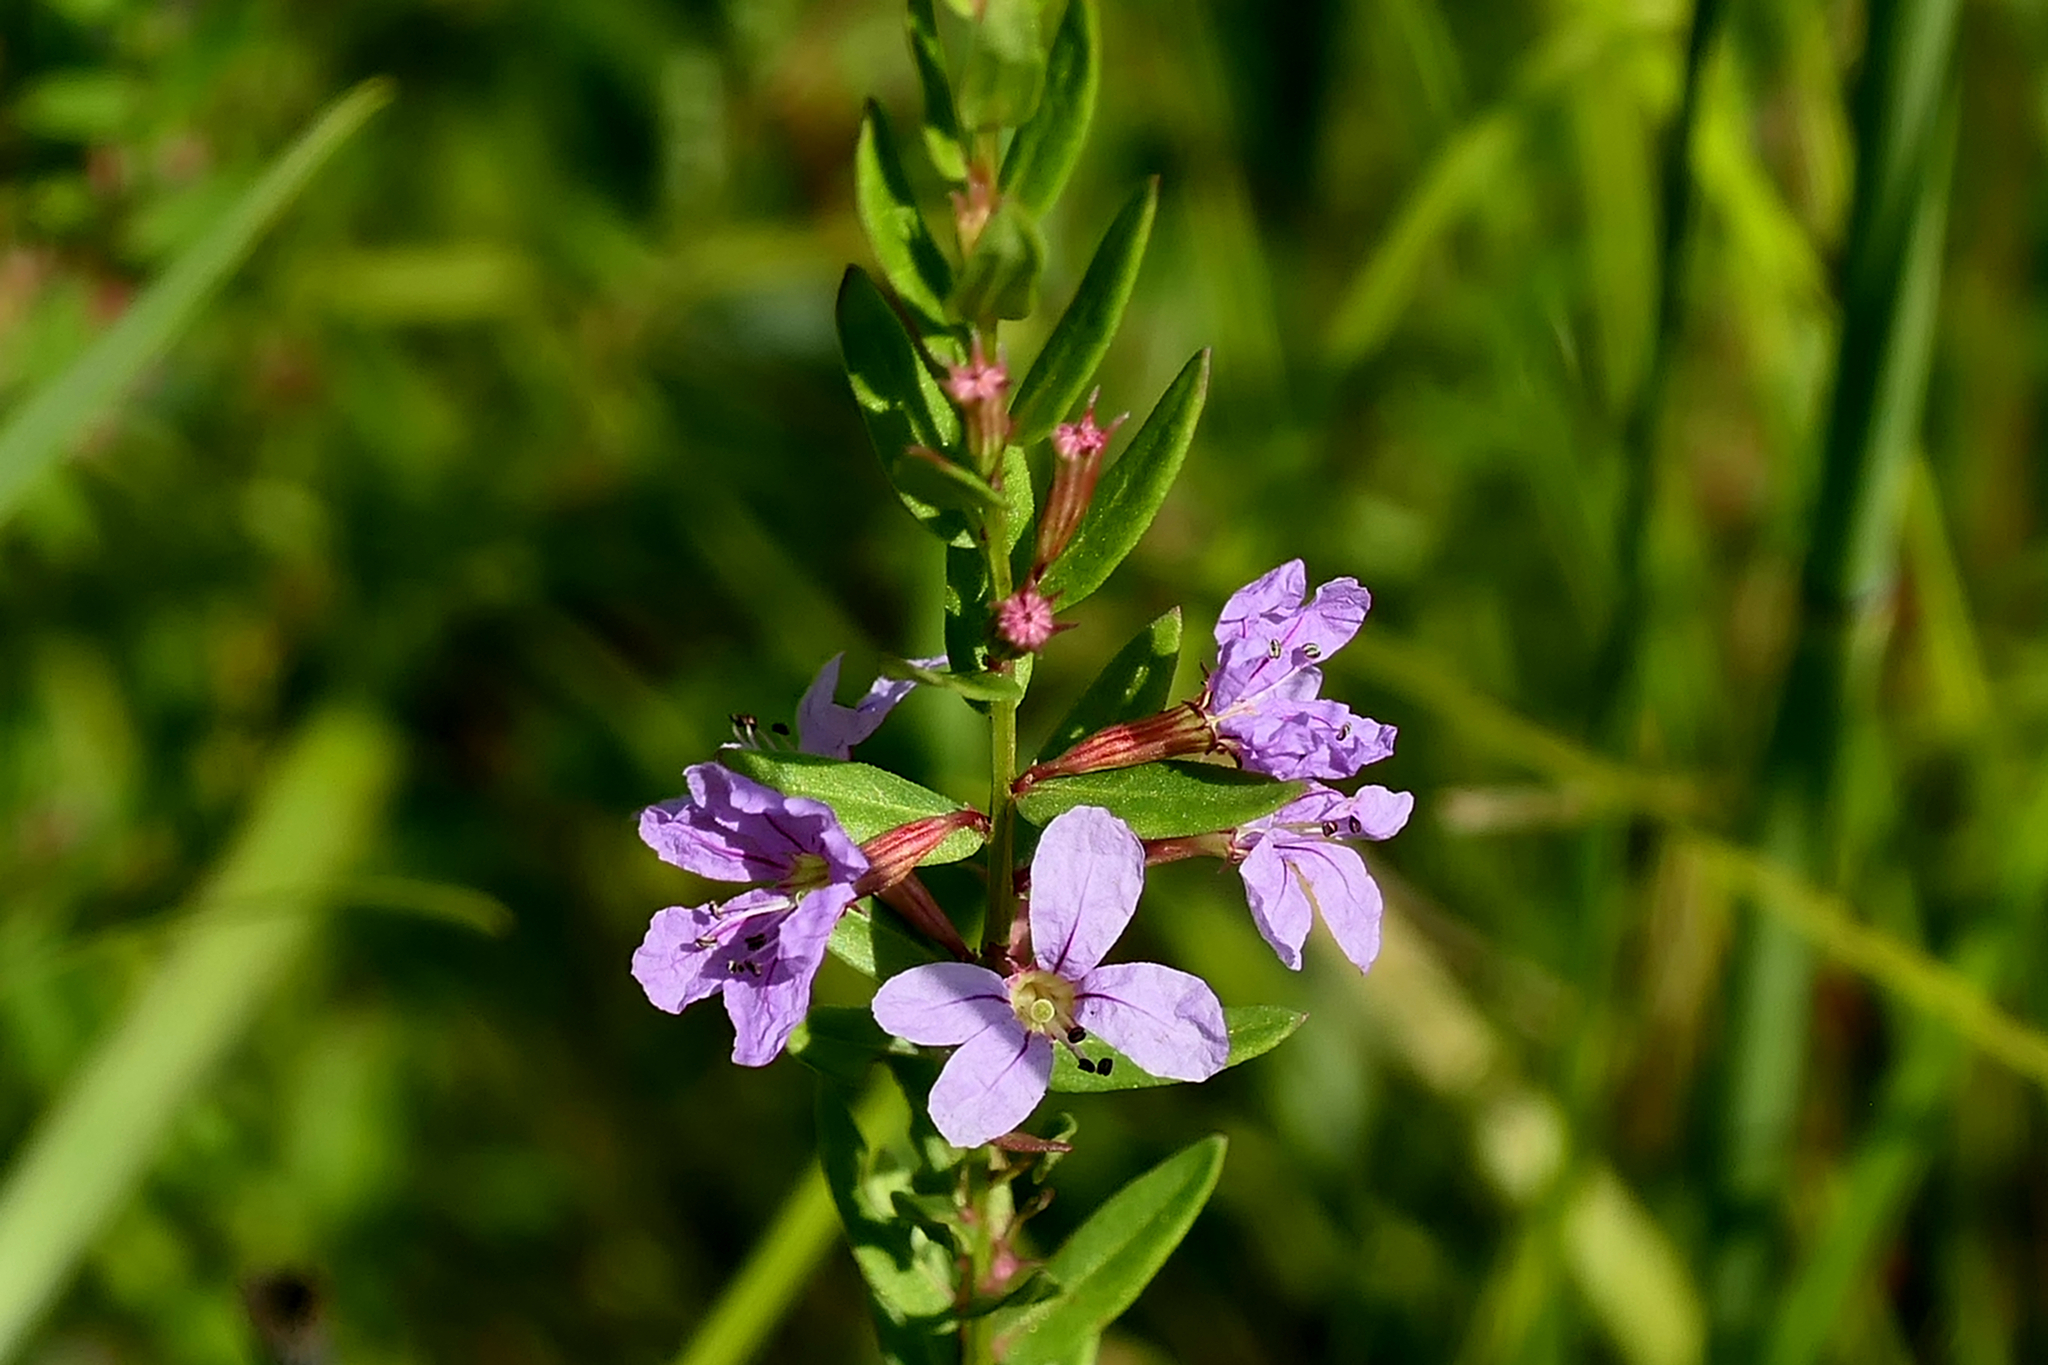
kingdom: Plantae
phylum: Tracheophyta
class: Magnoliopsida
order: Myrtales
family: Lythraceae
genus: Lythrum
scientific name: Lythrum alatum
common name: Winged loosestrife
